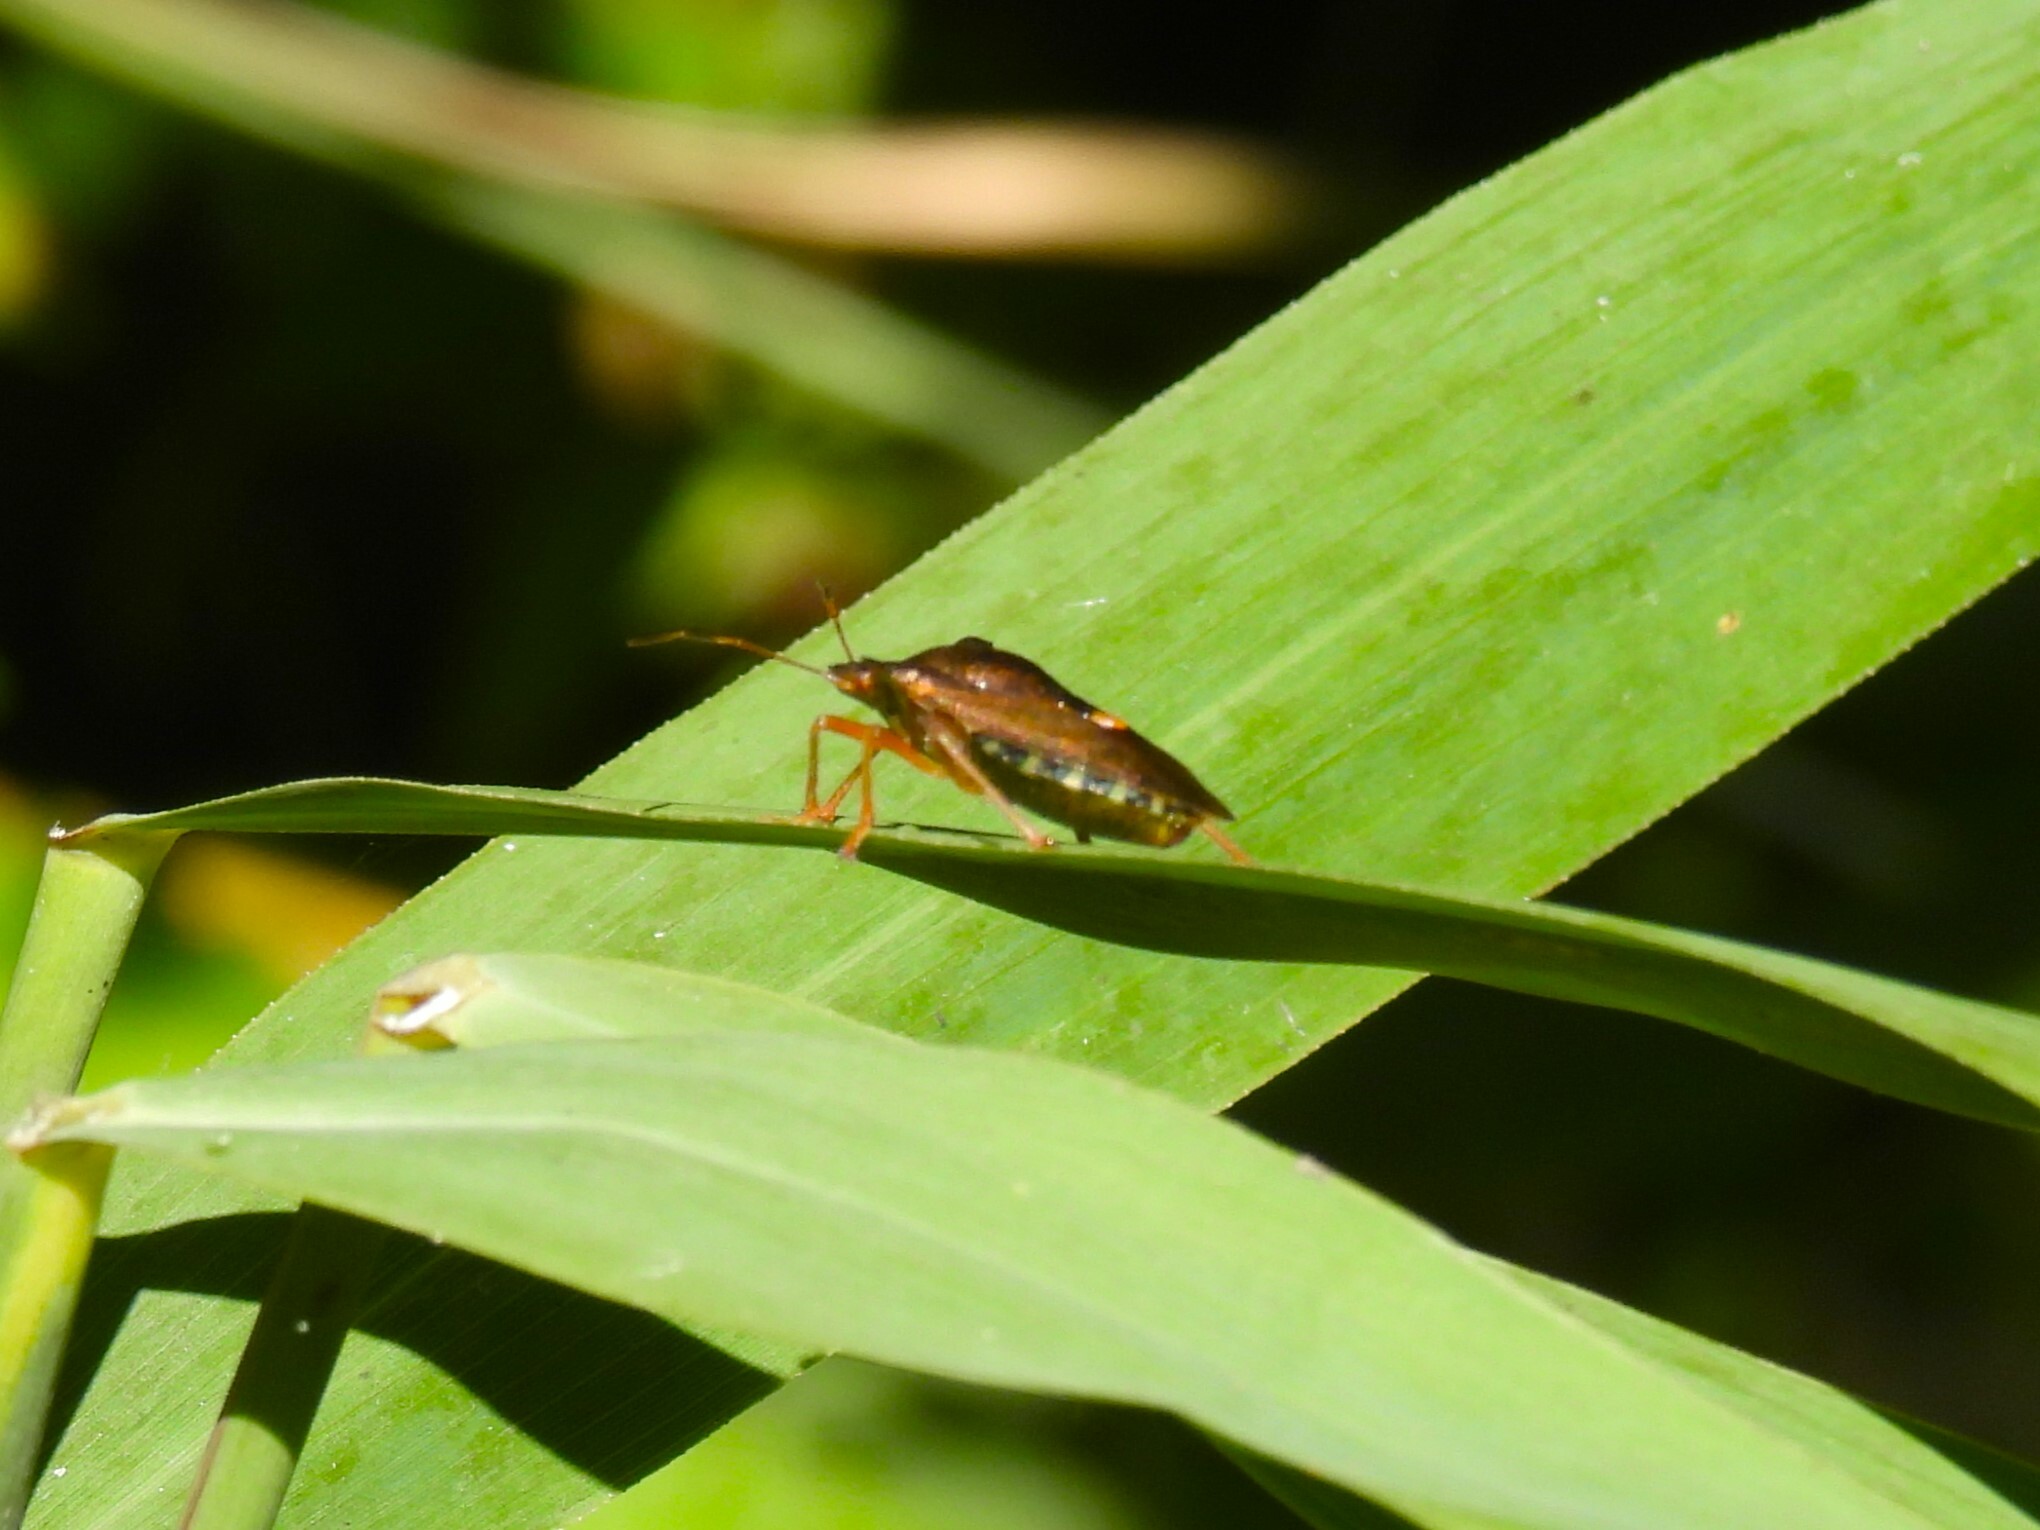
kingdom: Animalia
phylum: Arthropoda
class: Insecta
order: Hemiptera
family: Pentatomidae
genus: Pentatoma
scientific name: Pentatoma rufipes
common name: Forest bug
